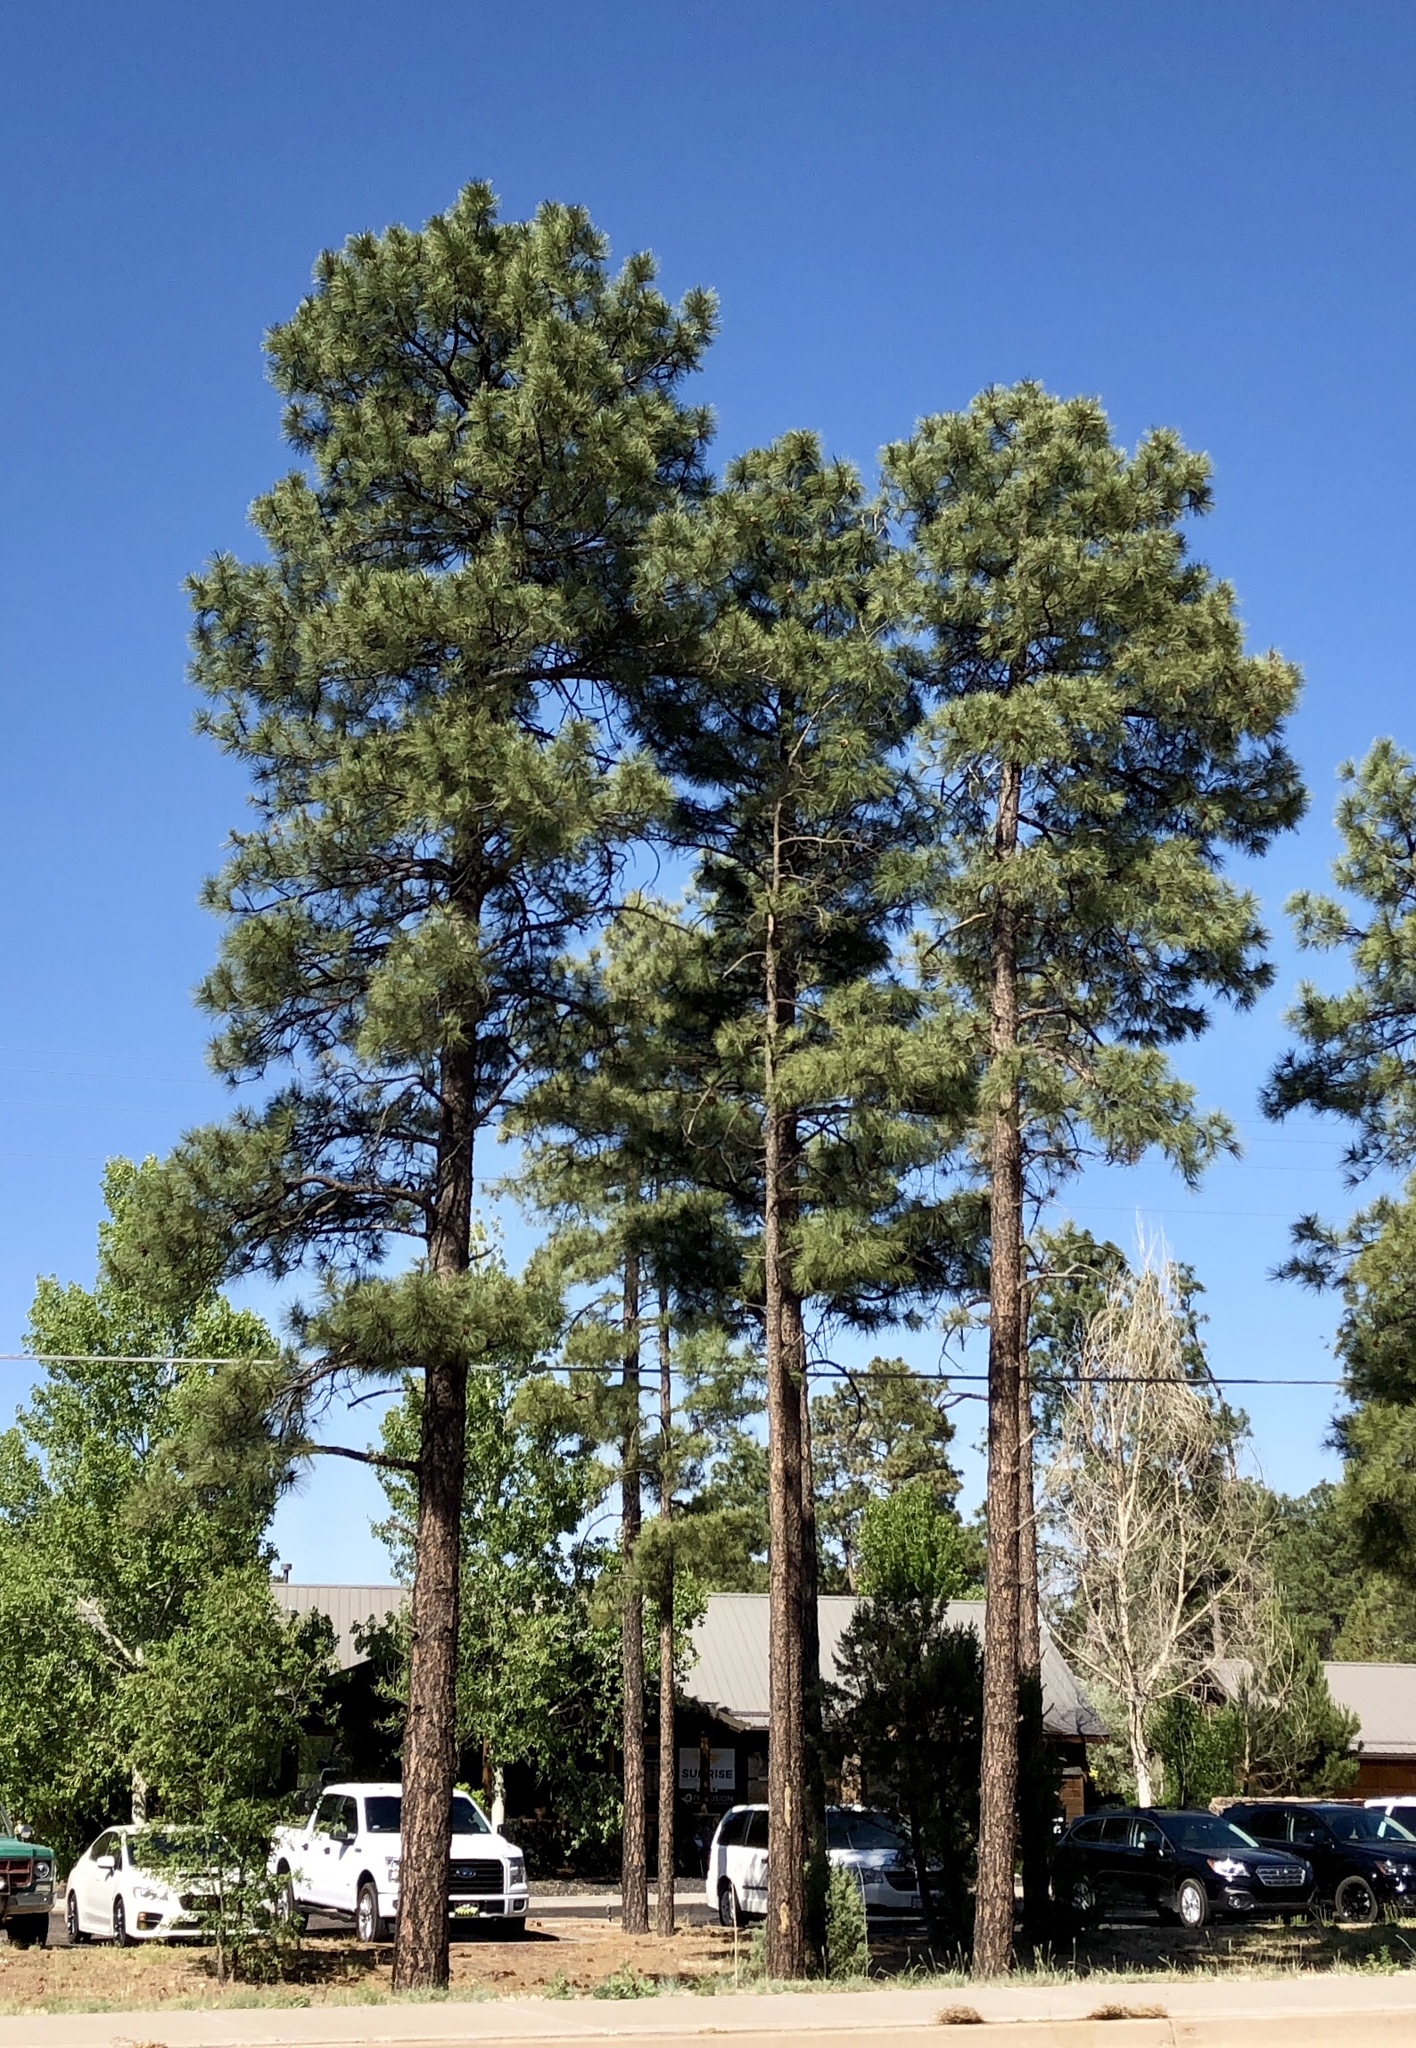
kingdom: Plantae
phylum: Tracheophyta
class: Pinopsida
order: Pinales
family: Pinaceae
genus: Pinus
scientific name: Pinus ponderosa
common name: Western yellow-pine
